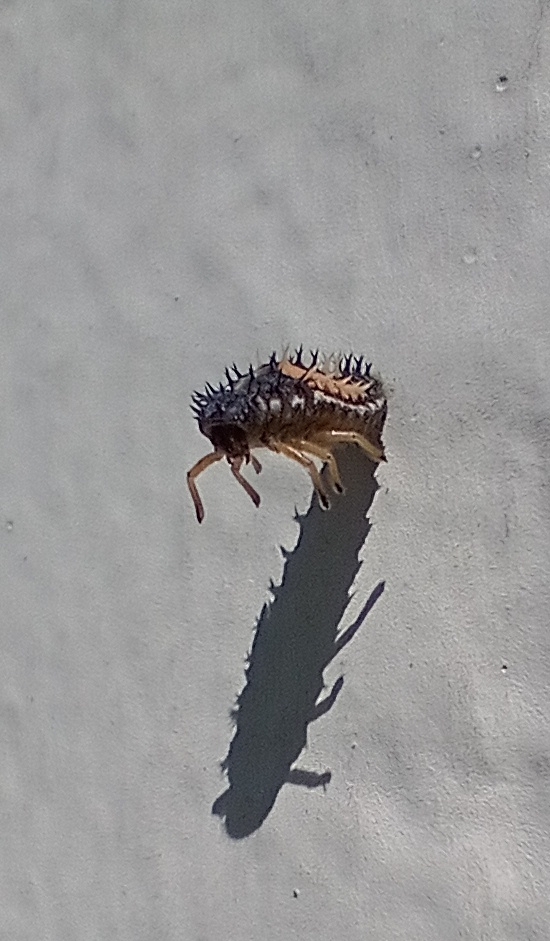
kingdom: Animalia
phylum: Arthropoda
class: Insecta
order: Coleoptera
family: Coccinellidae
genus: Harmonia
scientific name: Harmonia axyridis
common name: Harlequin ladybird
